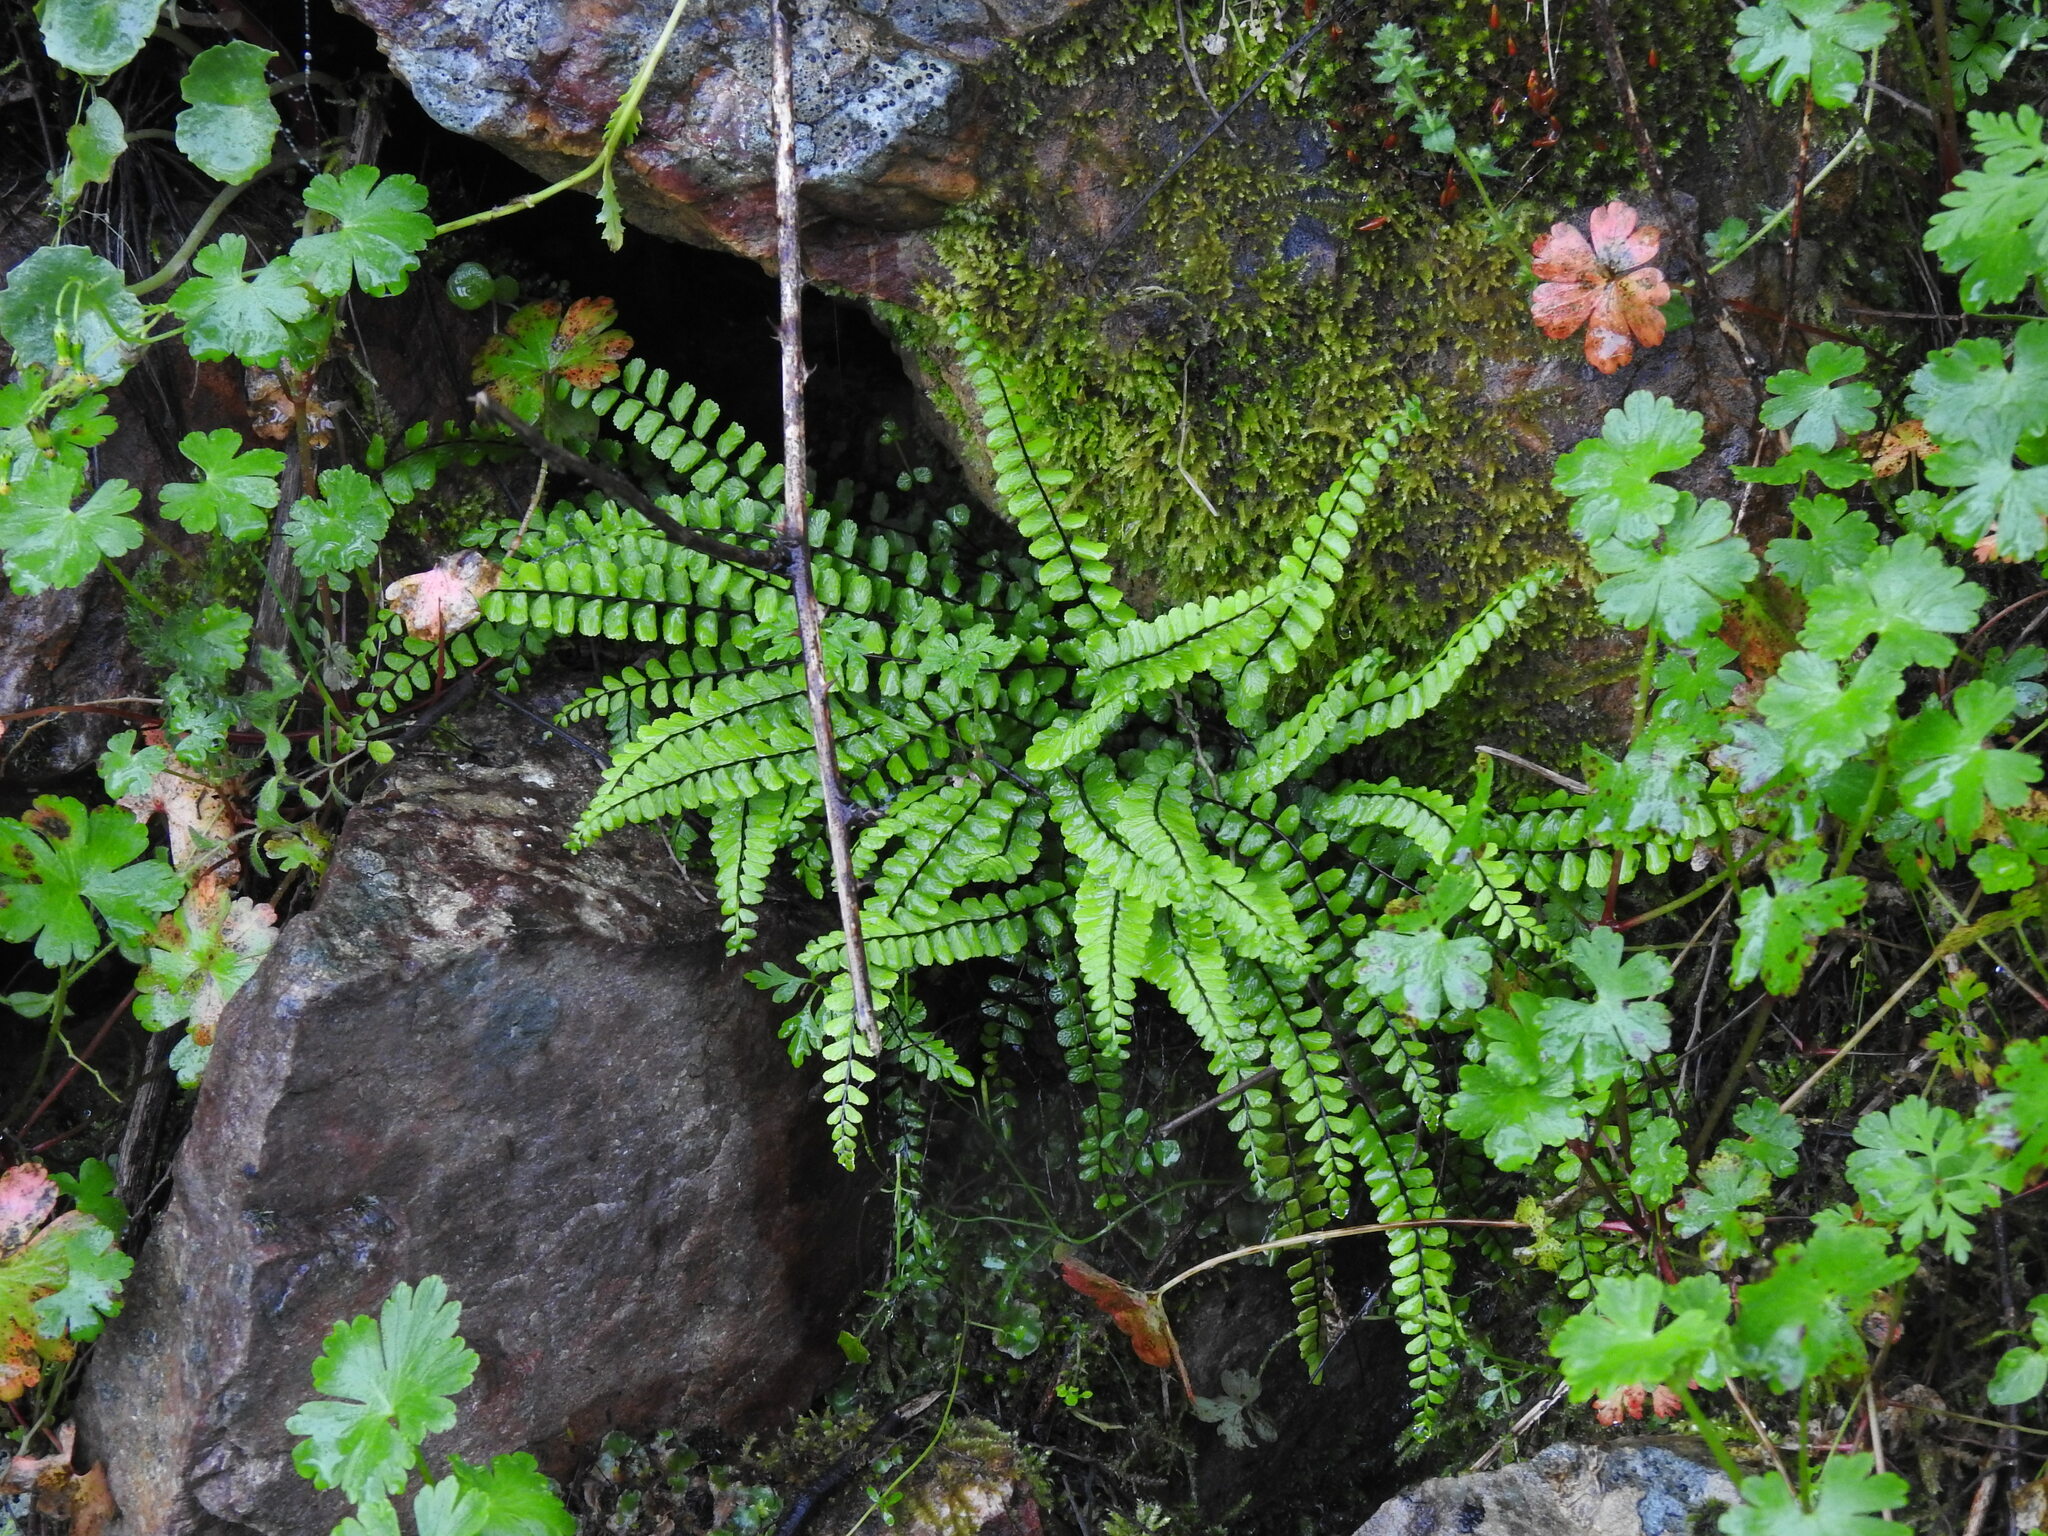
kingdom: Plantae
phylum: Tracheophyta
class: Polypodiopsida
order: Polypodiales
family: Aspleniaceae
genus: Asplenium
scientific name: Asplenium trichomanes
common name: Maidenhair spleenwort
